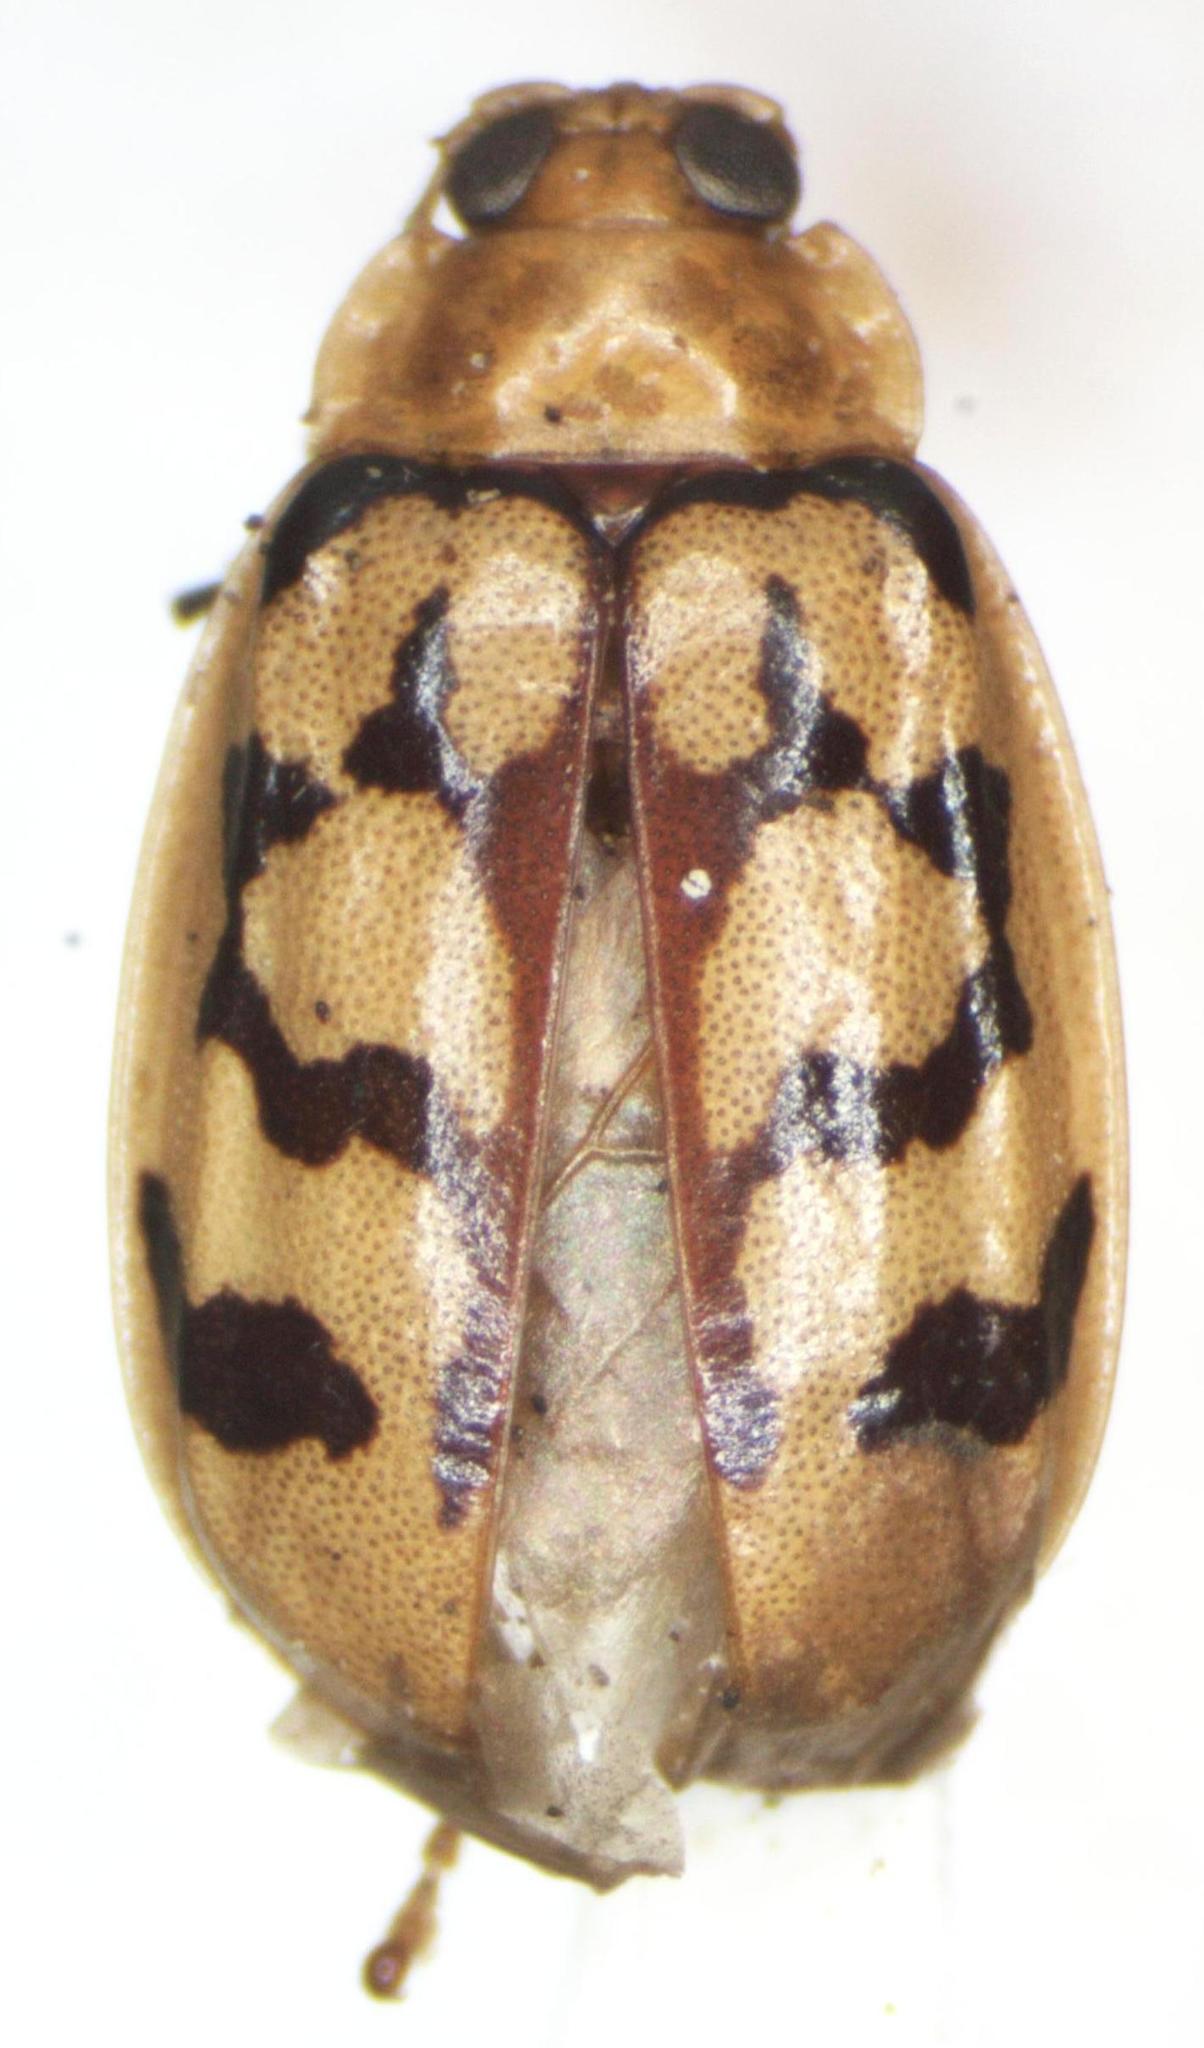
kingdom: Animalia
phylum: Arthropoda
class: Insecta
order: Coleoptera
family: Chrysomelidae
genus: Walterianella
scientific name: Walterianella
